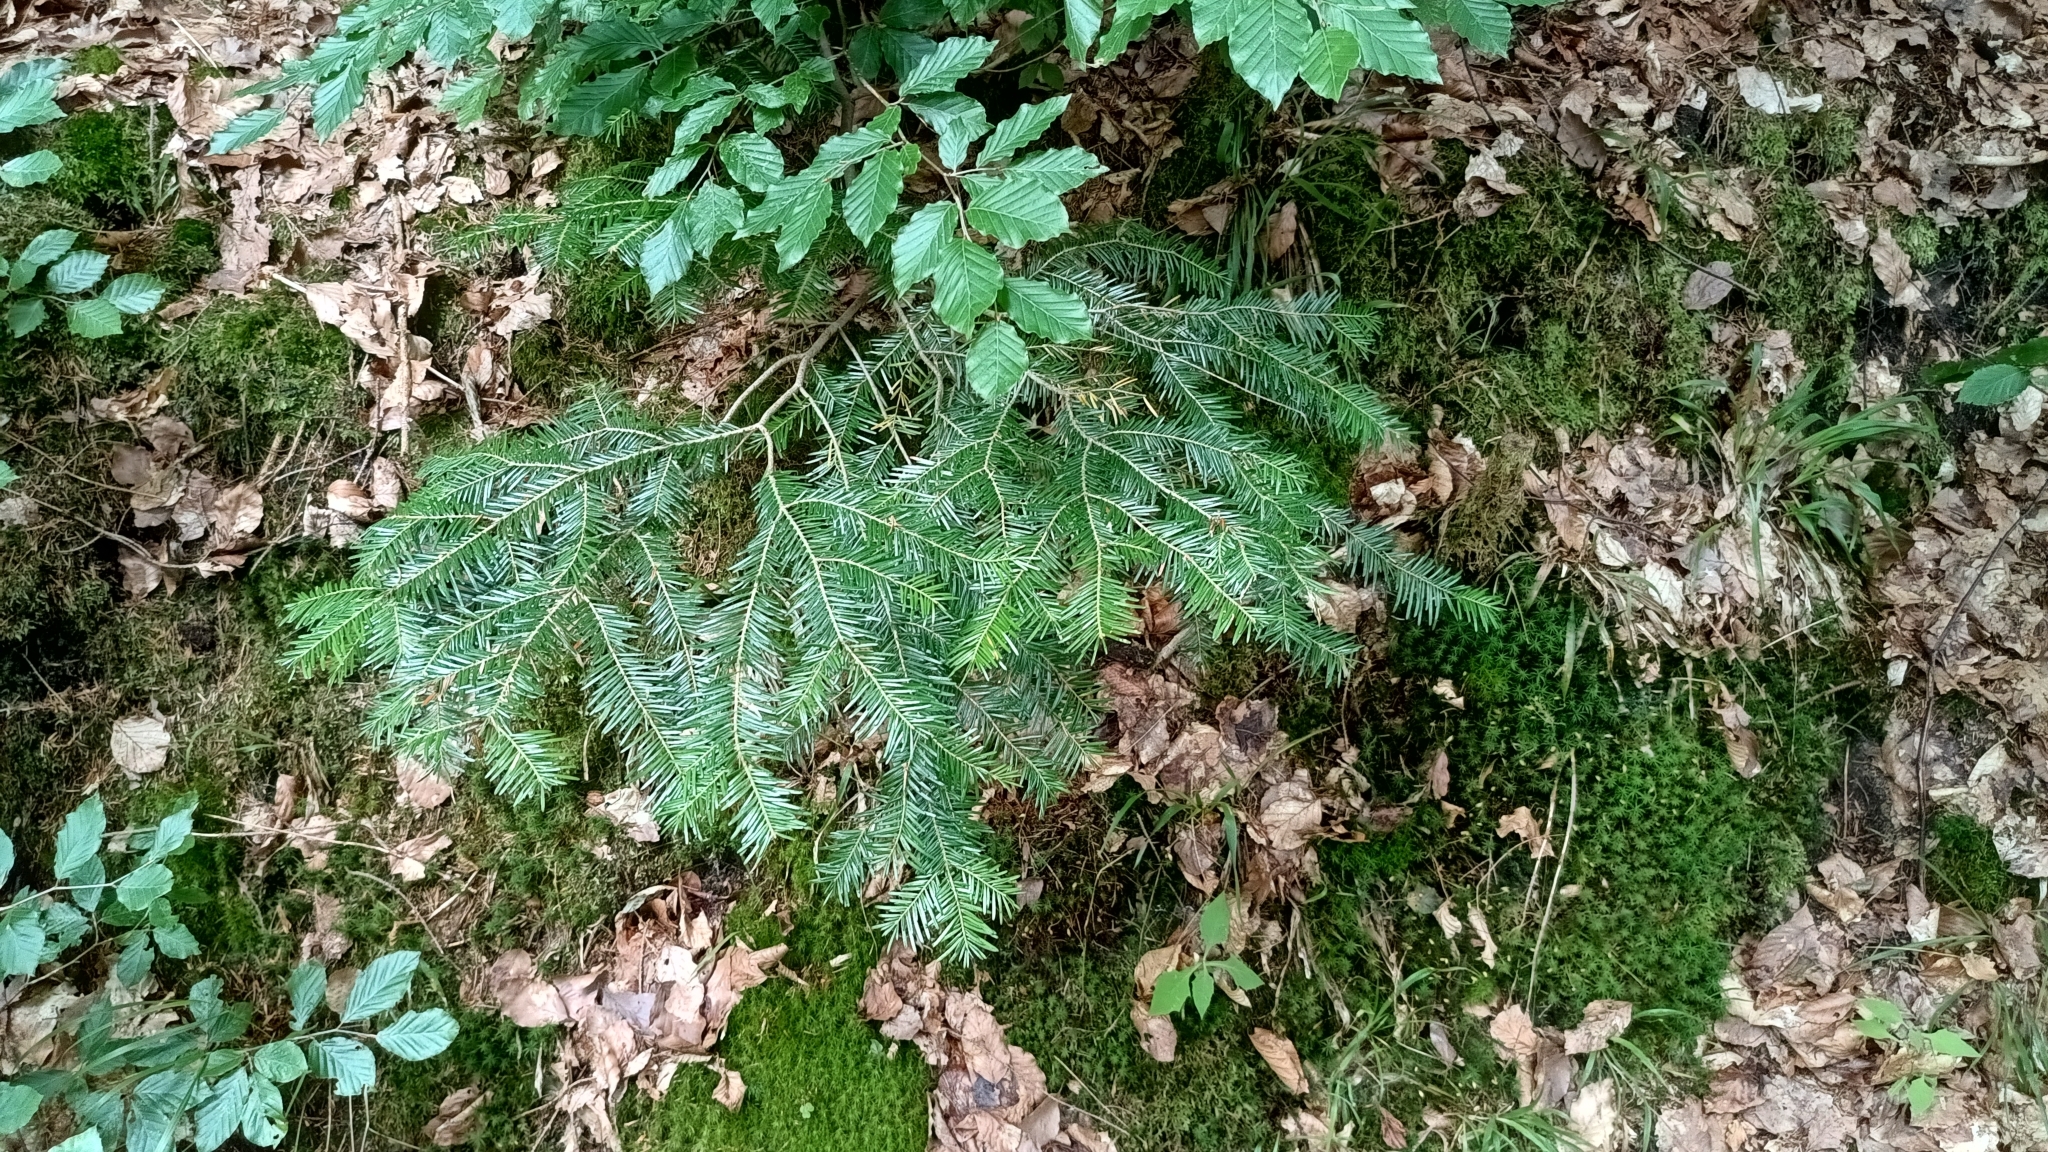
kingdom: Plantae
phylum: Tracheophyta
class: Pinopsida
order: Pinales
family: Pinaceae
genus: Abies
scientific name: Abies alba
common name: Silver fir
